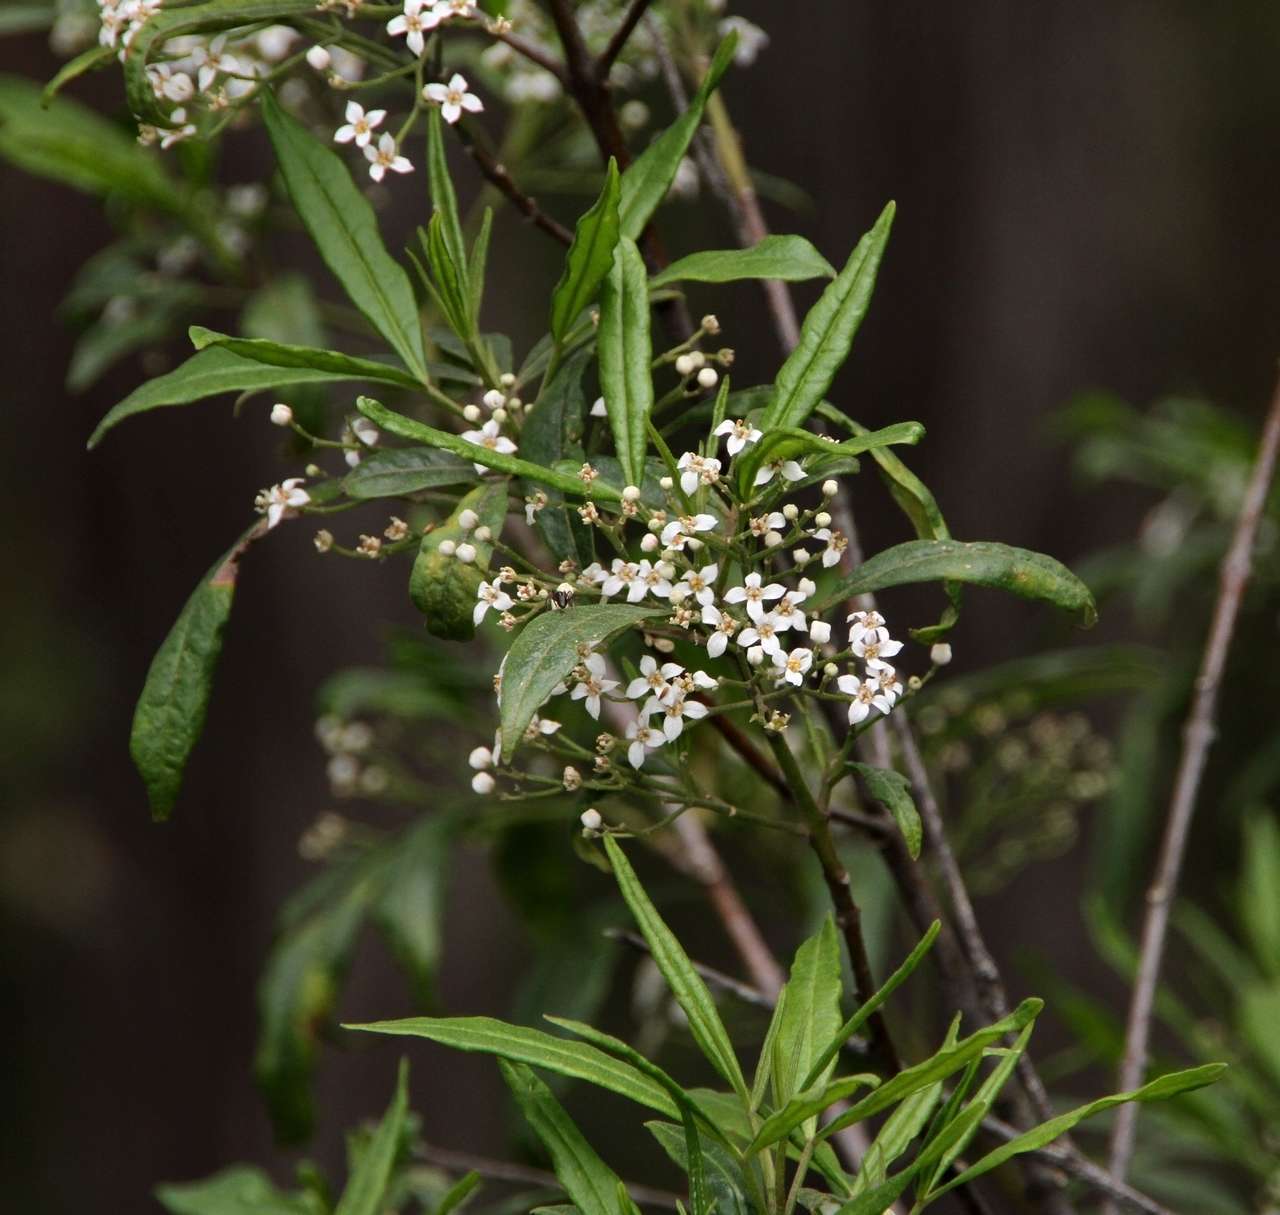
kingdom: Plantae
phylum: Tracheophyta
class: Magnoliopsida
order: Sapindales
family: Rutaceae
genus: Zieria
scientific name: Zieria arborescens
